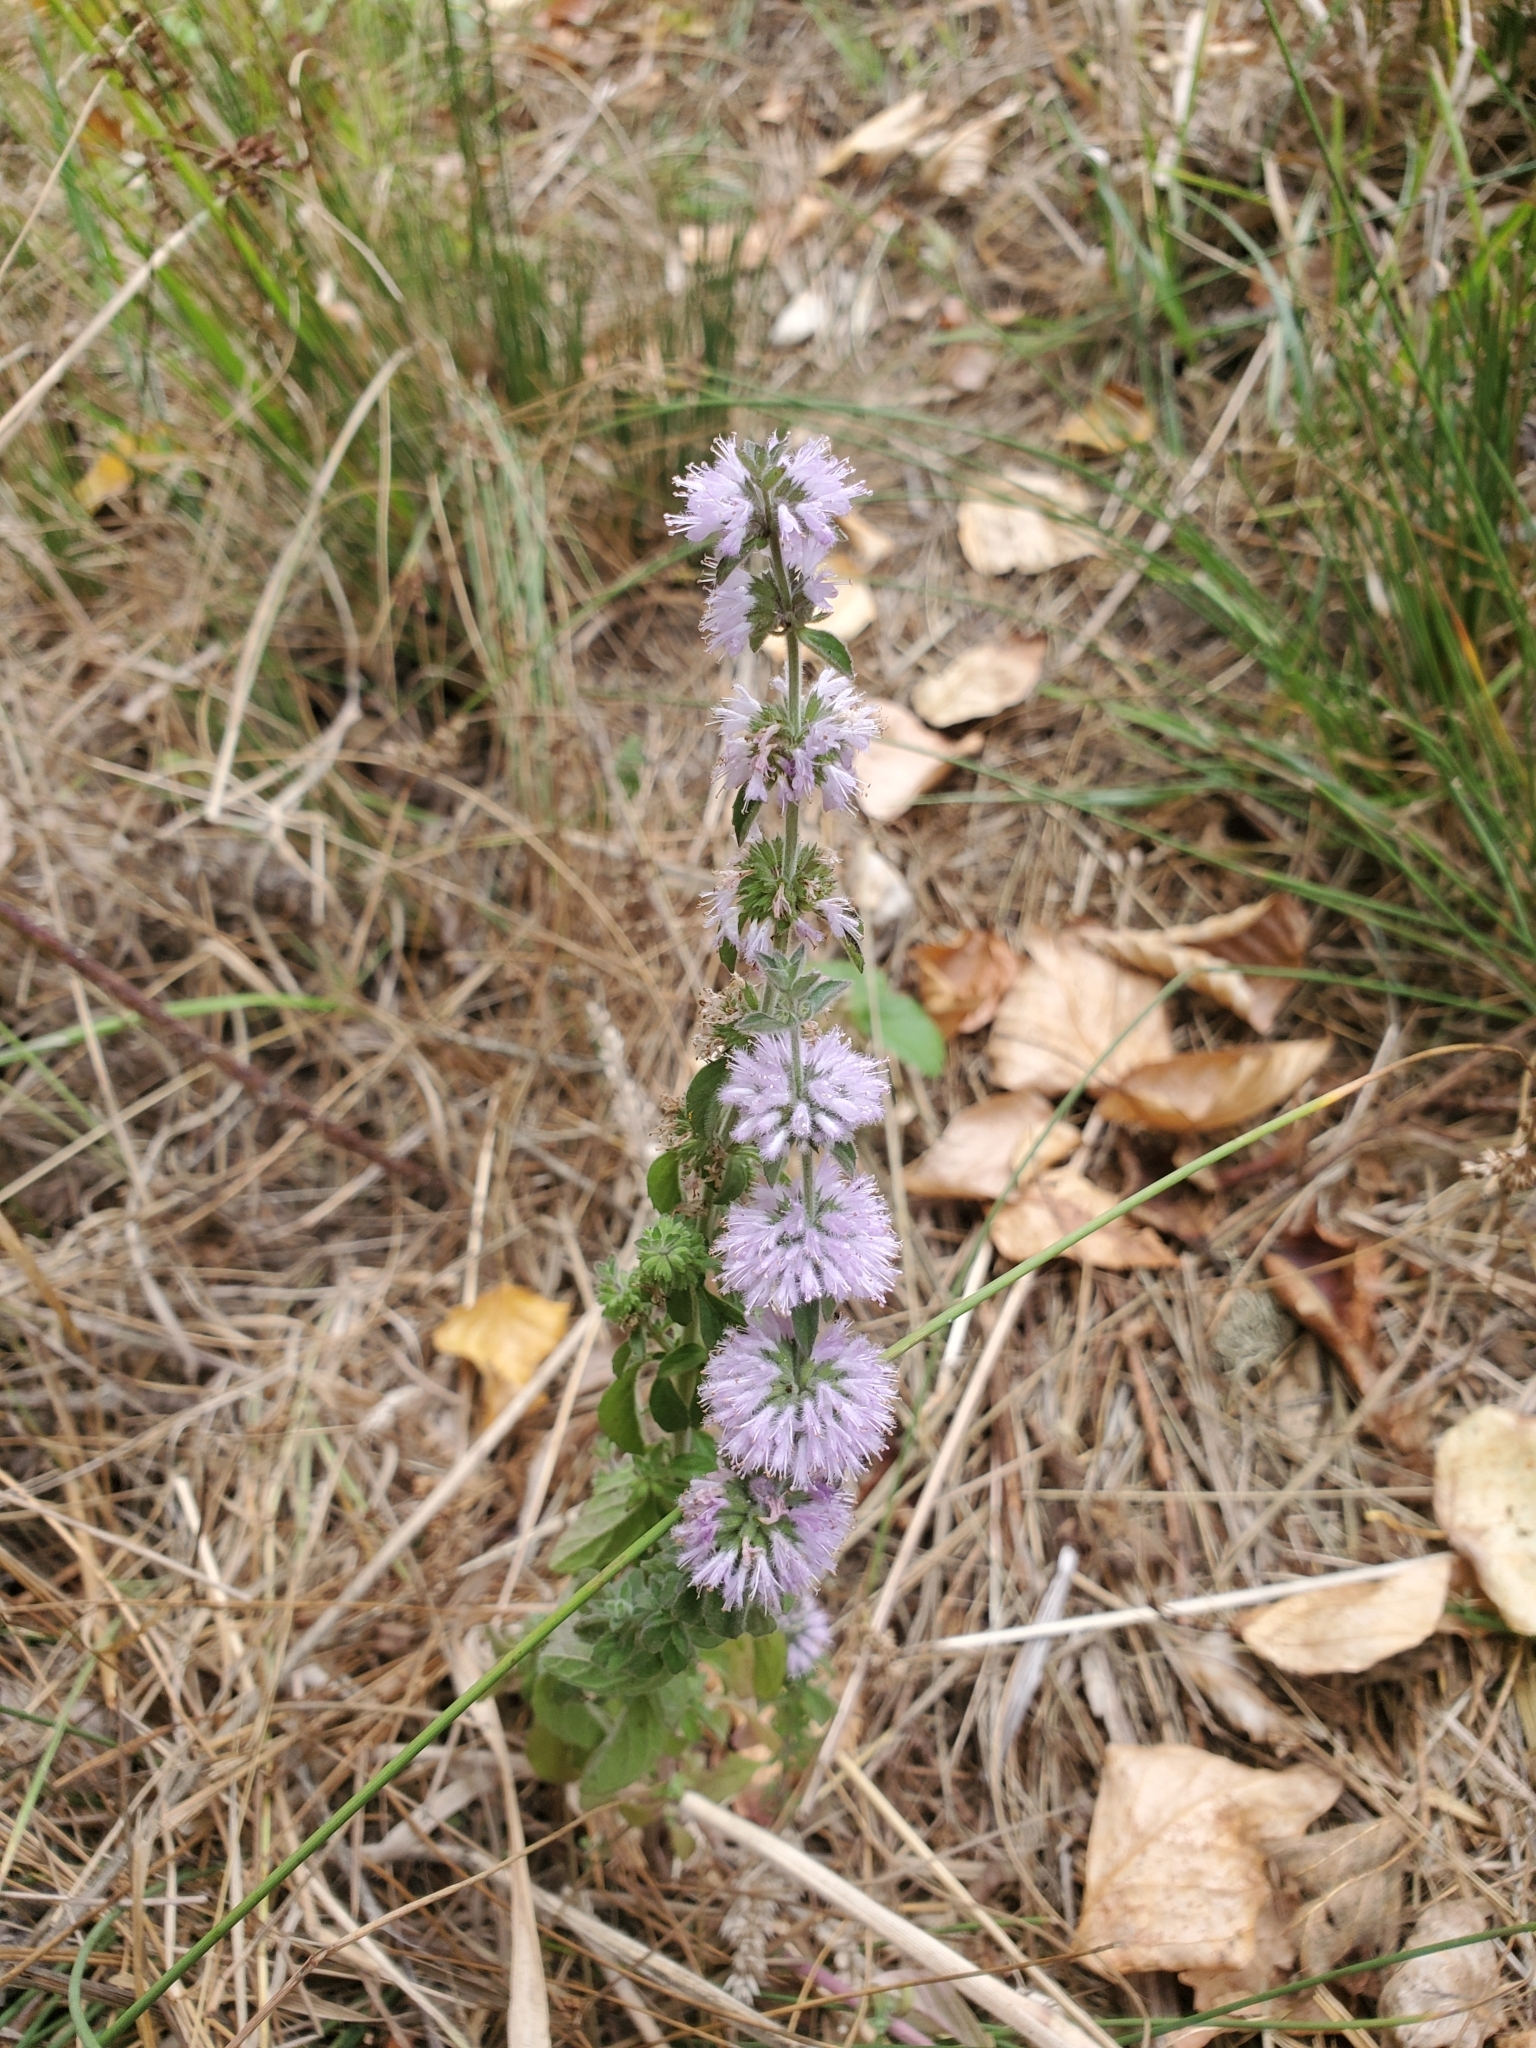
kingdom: Plantae
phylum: Tracheophyta
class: Magnoliopsida
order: Lamiales
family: Lamiaceae
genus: Mentha
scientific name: Mentha pulegium
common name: Pennyroyal
